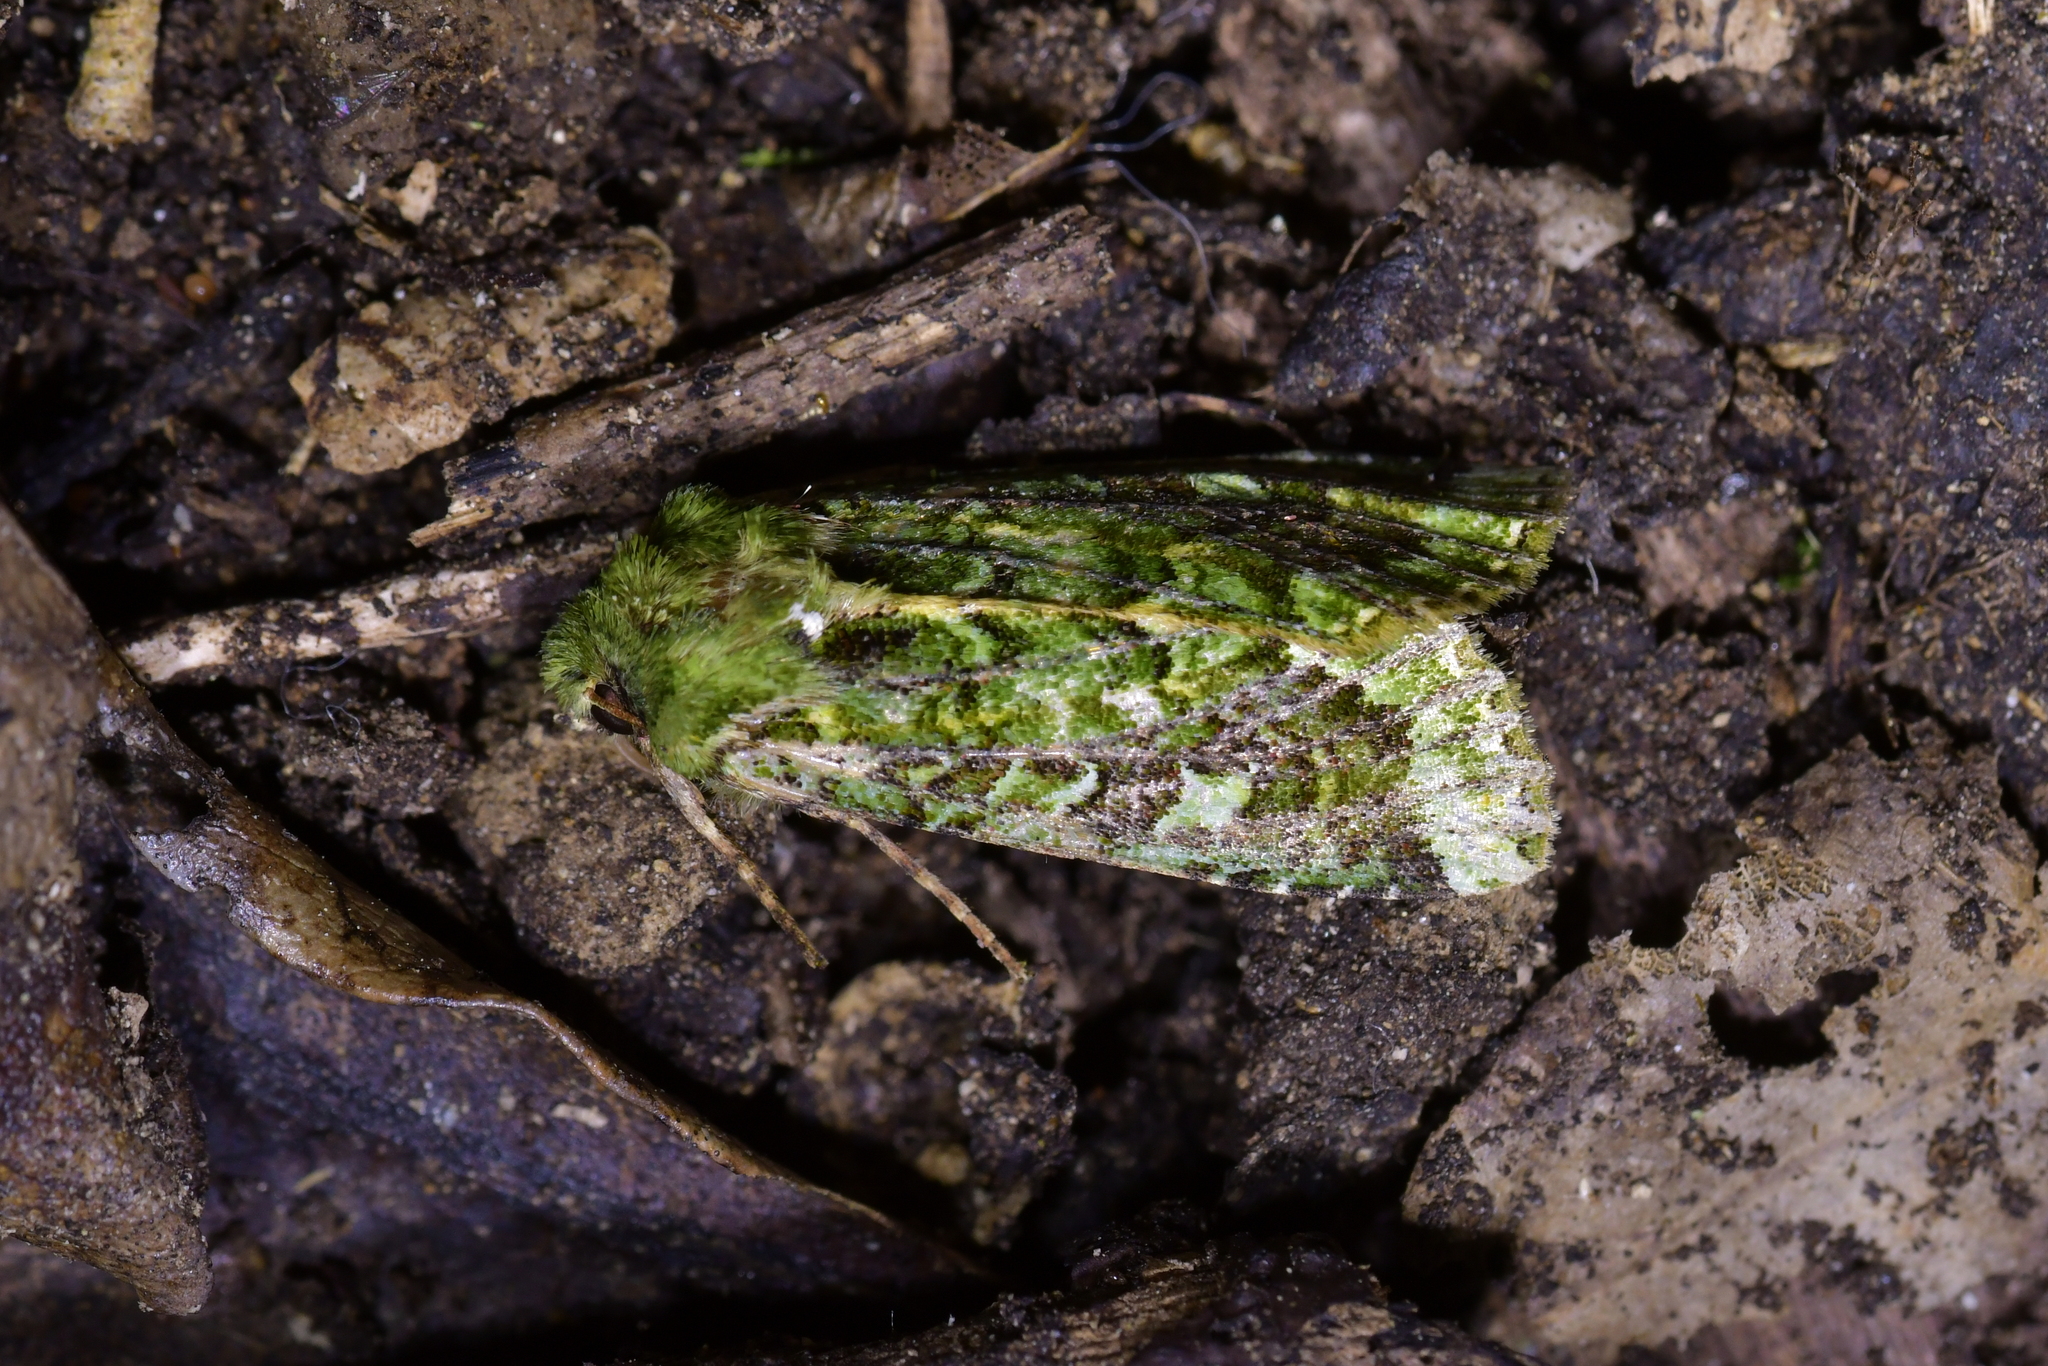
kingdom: Animalia
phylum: Arthropoda
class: Insecta
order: Lepidoptera
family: Noctuidae
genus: Feredayia
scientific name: Feredayia grammosa
